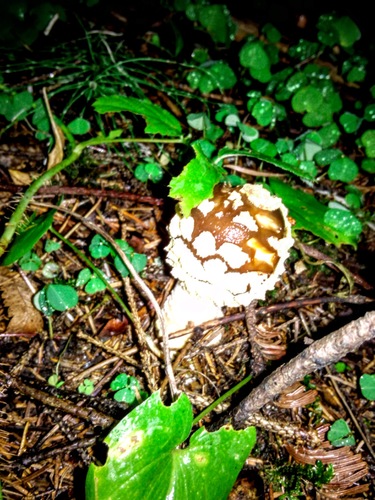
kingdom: Fungi
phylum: Basidiomycota
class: Agaricomycetes
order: Agaricales
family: Amanitaceae
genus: Amanita
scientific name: Amanita regalis
